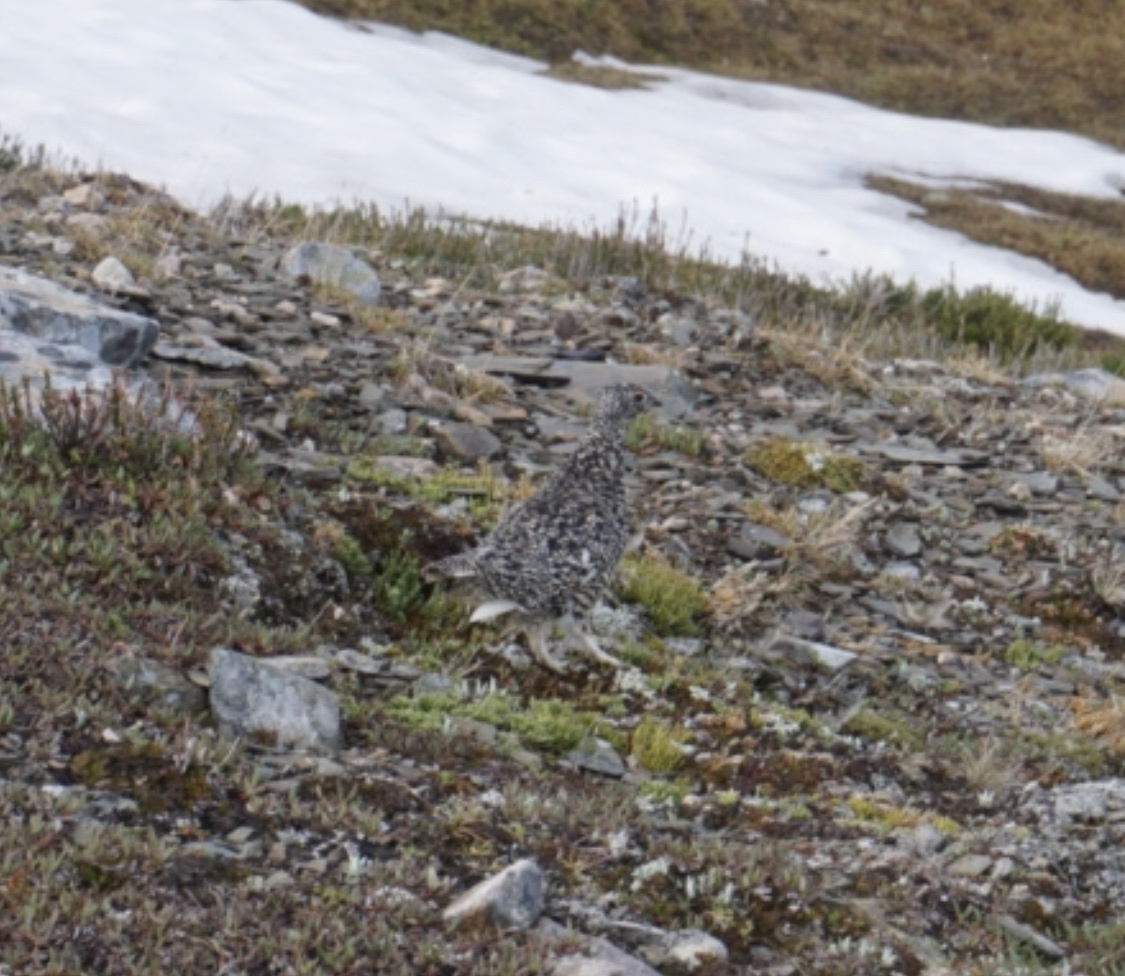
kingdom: Animalia
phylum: Chordata
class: Aves
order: Galliformes
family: Phasianidae
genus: Lagopus
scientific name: Lagopus leucura
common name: White-tailed ptarmigan
